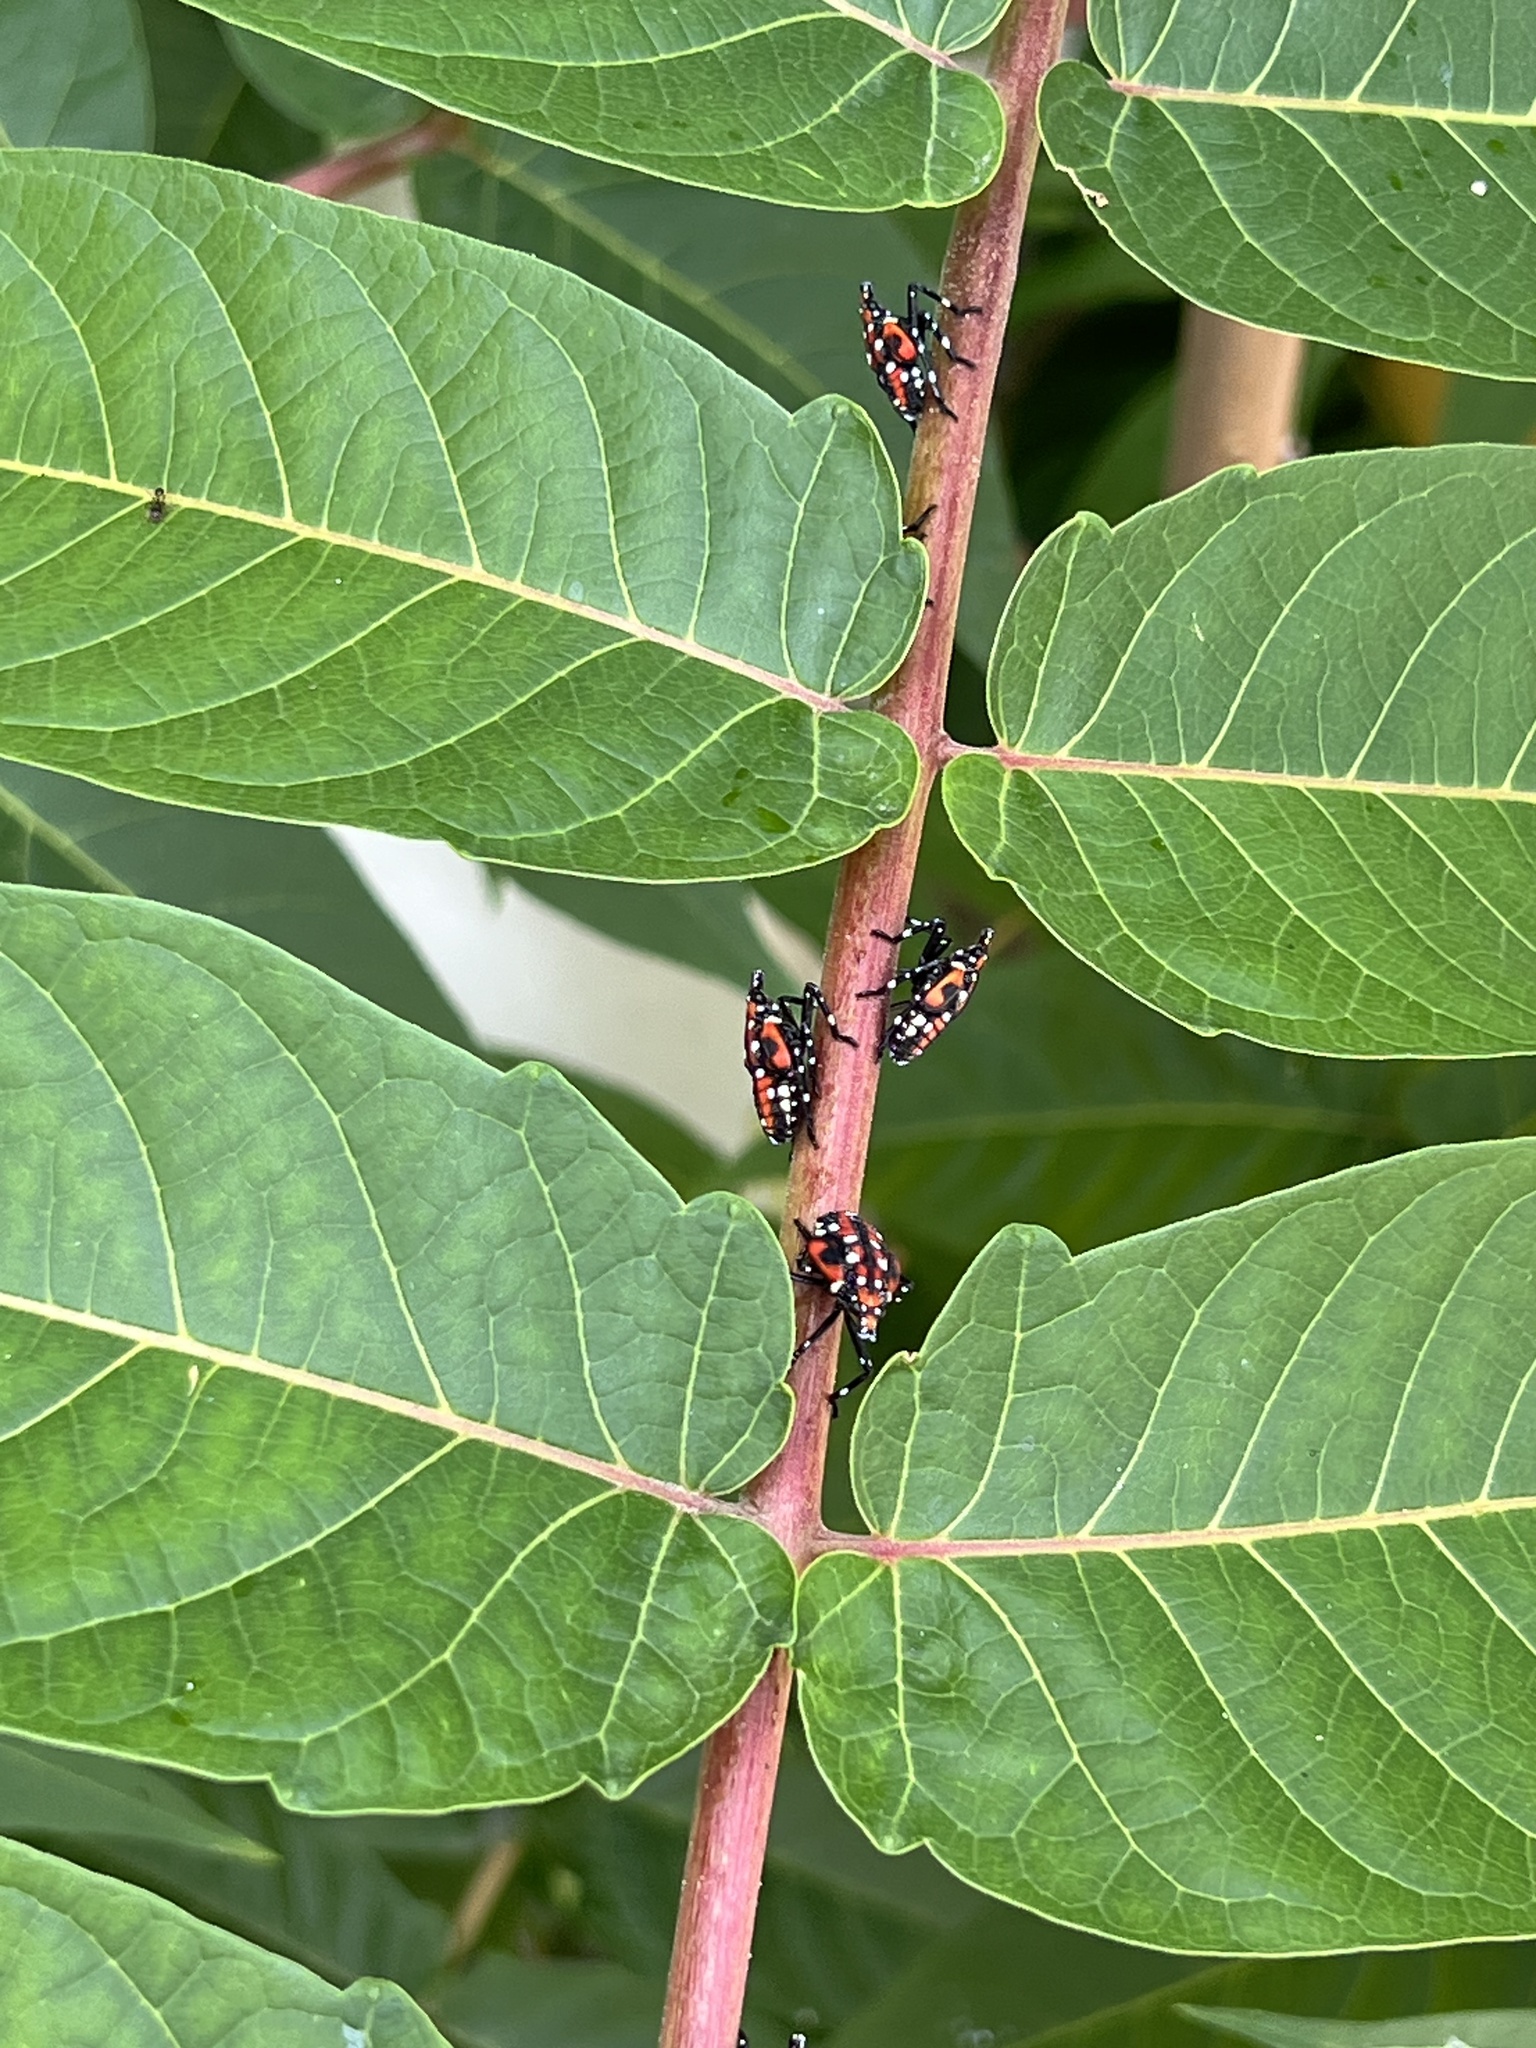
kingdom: Animalia
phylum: Arthropoda
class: Insecta
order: Hemiptera
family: Fulgoridae
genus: Lycorma
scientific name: Lycorma delicatula
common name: Spotted lanternfly
